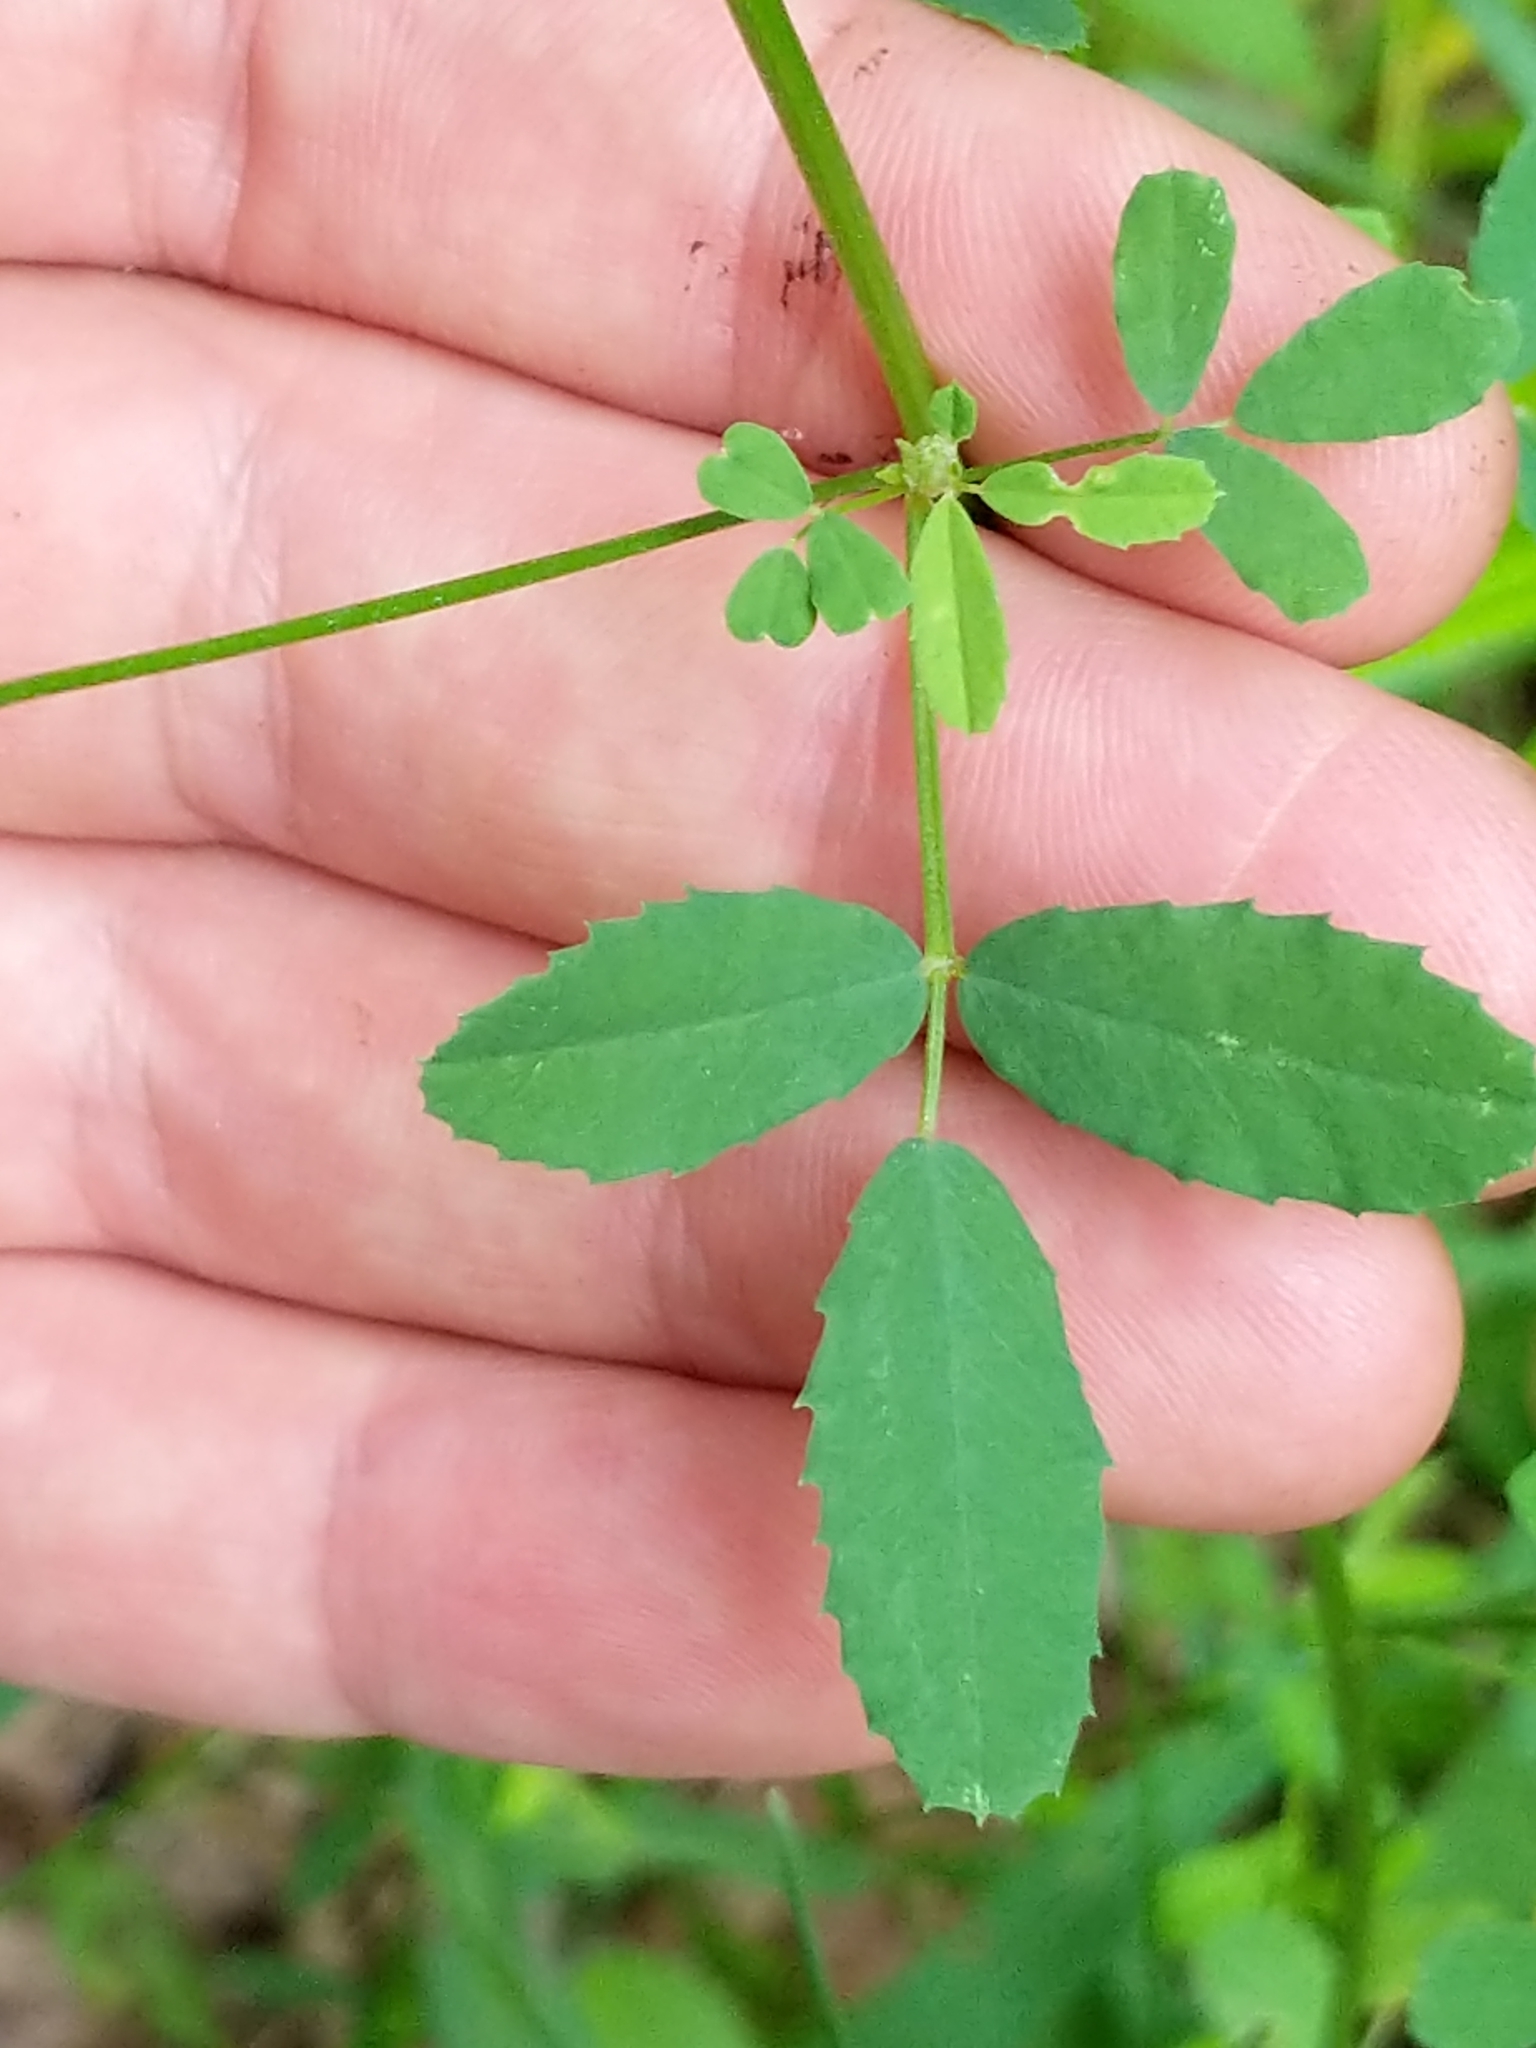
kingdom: Plantae
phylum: Tracheophyta
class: Magnoliopsida
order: Fabales
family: Fabaceae
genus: Melilotus
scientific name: Melilotus officinalis
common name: Sweetclover
